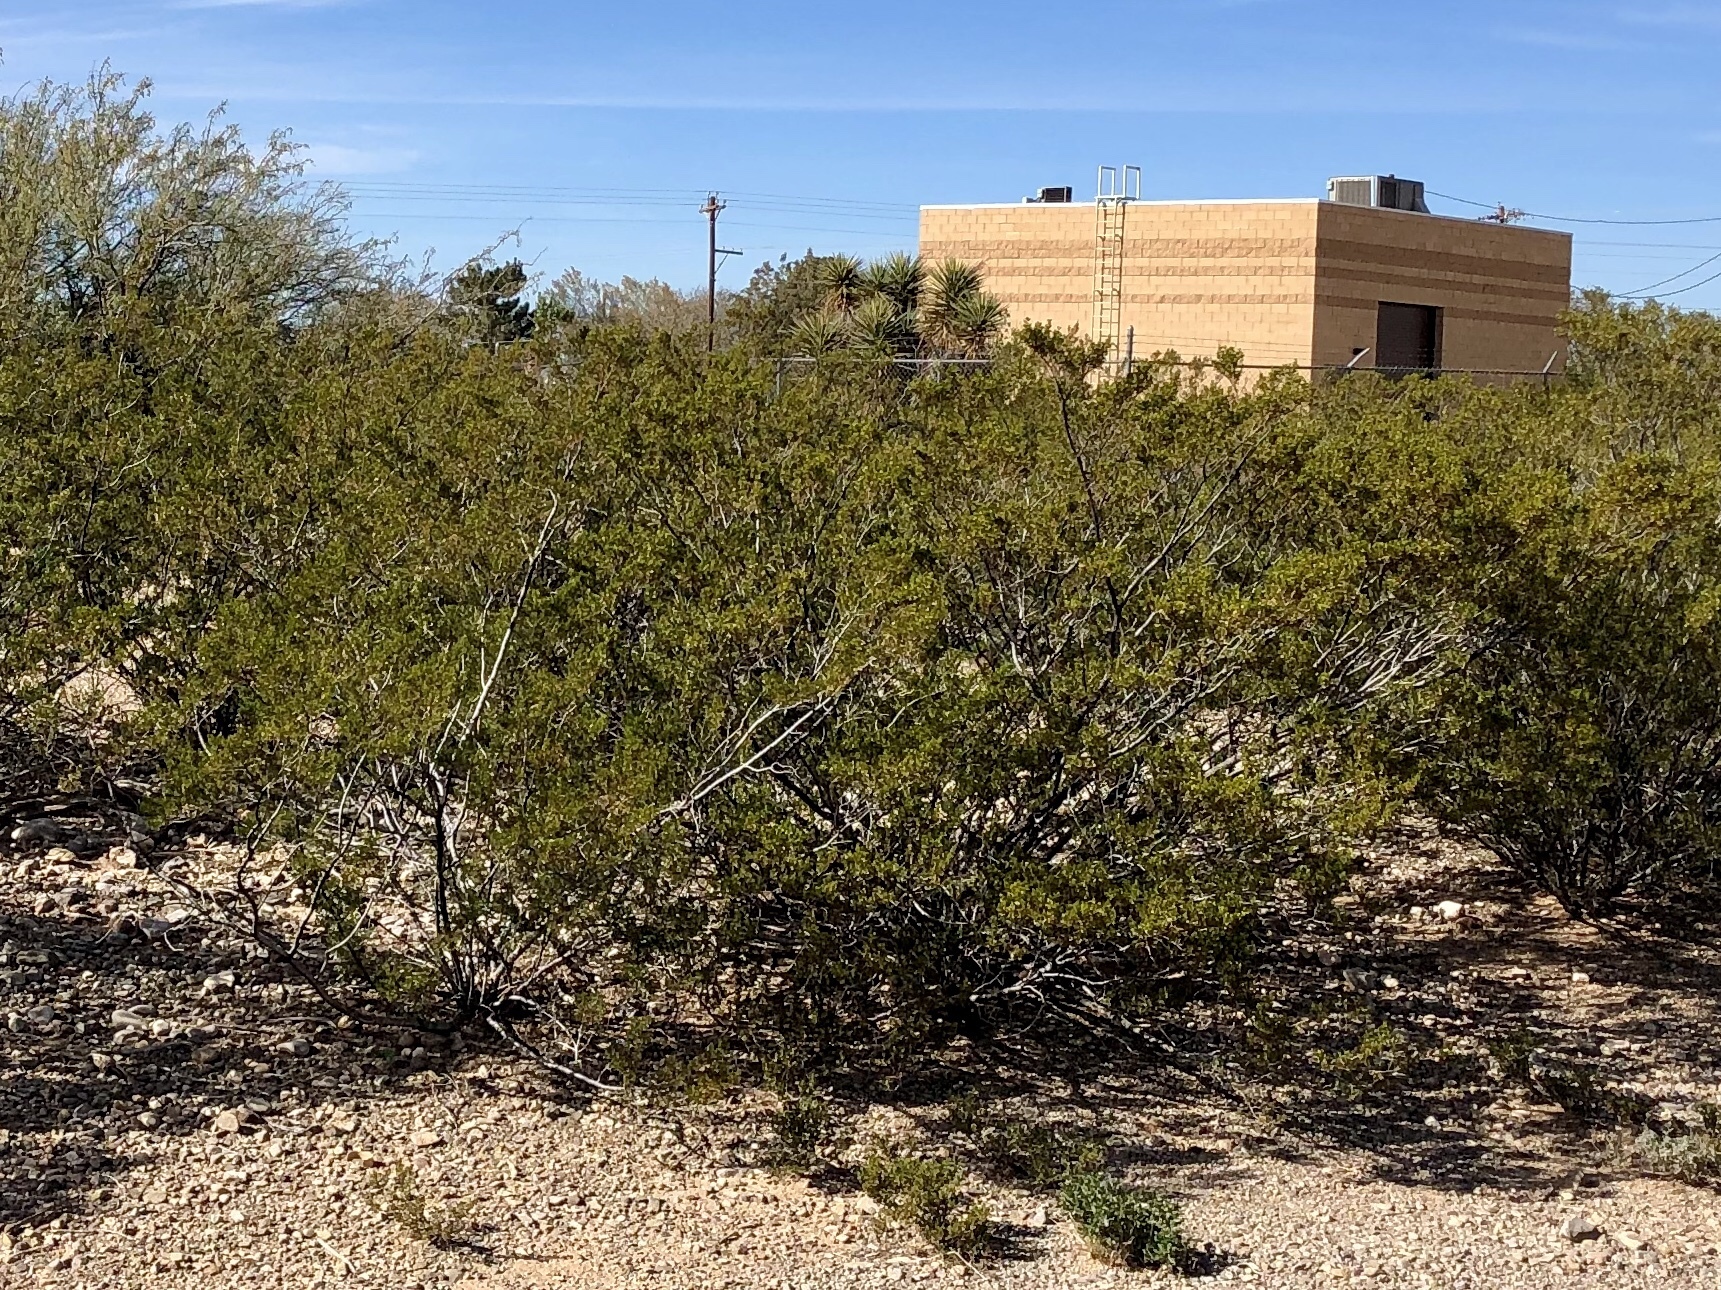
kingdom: Plantae
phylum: Tracheophyta
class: Magnoliopsida
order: Zygophyllales
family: Zygophyllaceae
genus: Larrea
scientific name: Larrea tridentata
